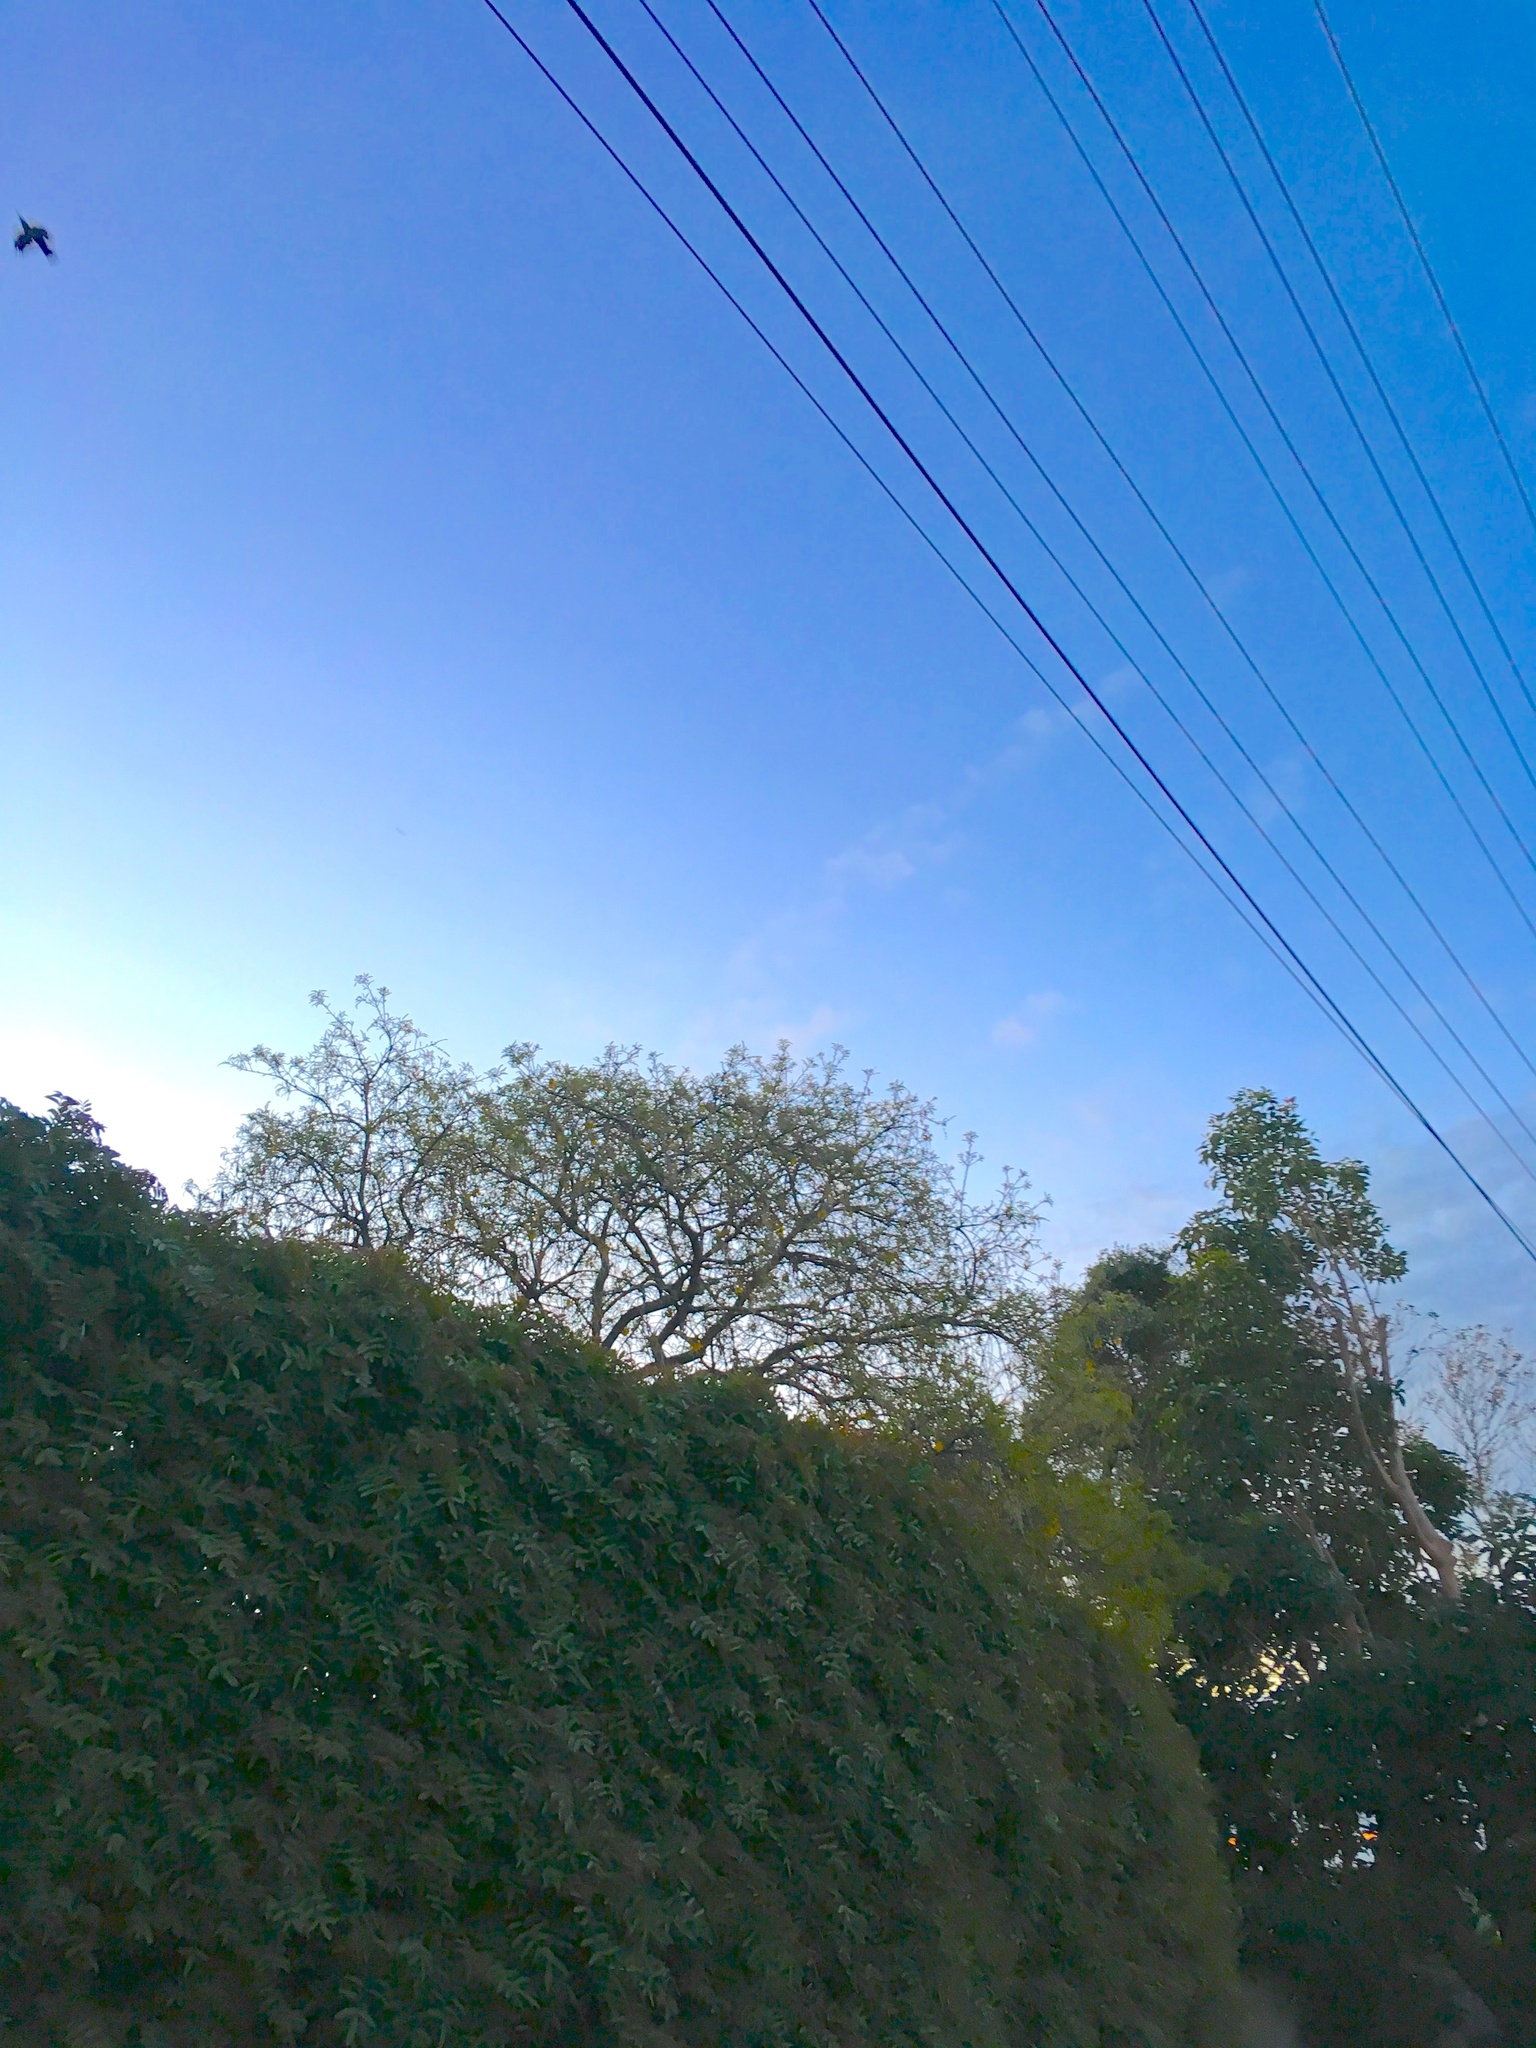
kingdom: Animalia
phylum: Chordata
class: Aves
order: Passeriformes
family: Meliphagidae
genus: Prosthemadera
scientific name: Prosthemadera novaeseelandiae
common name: Tui
